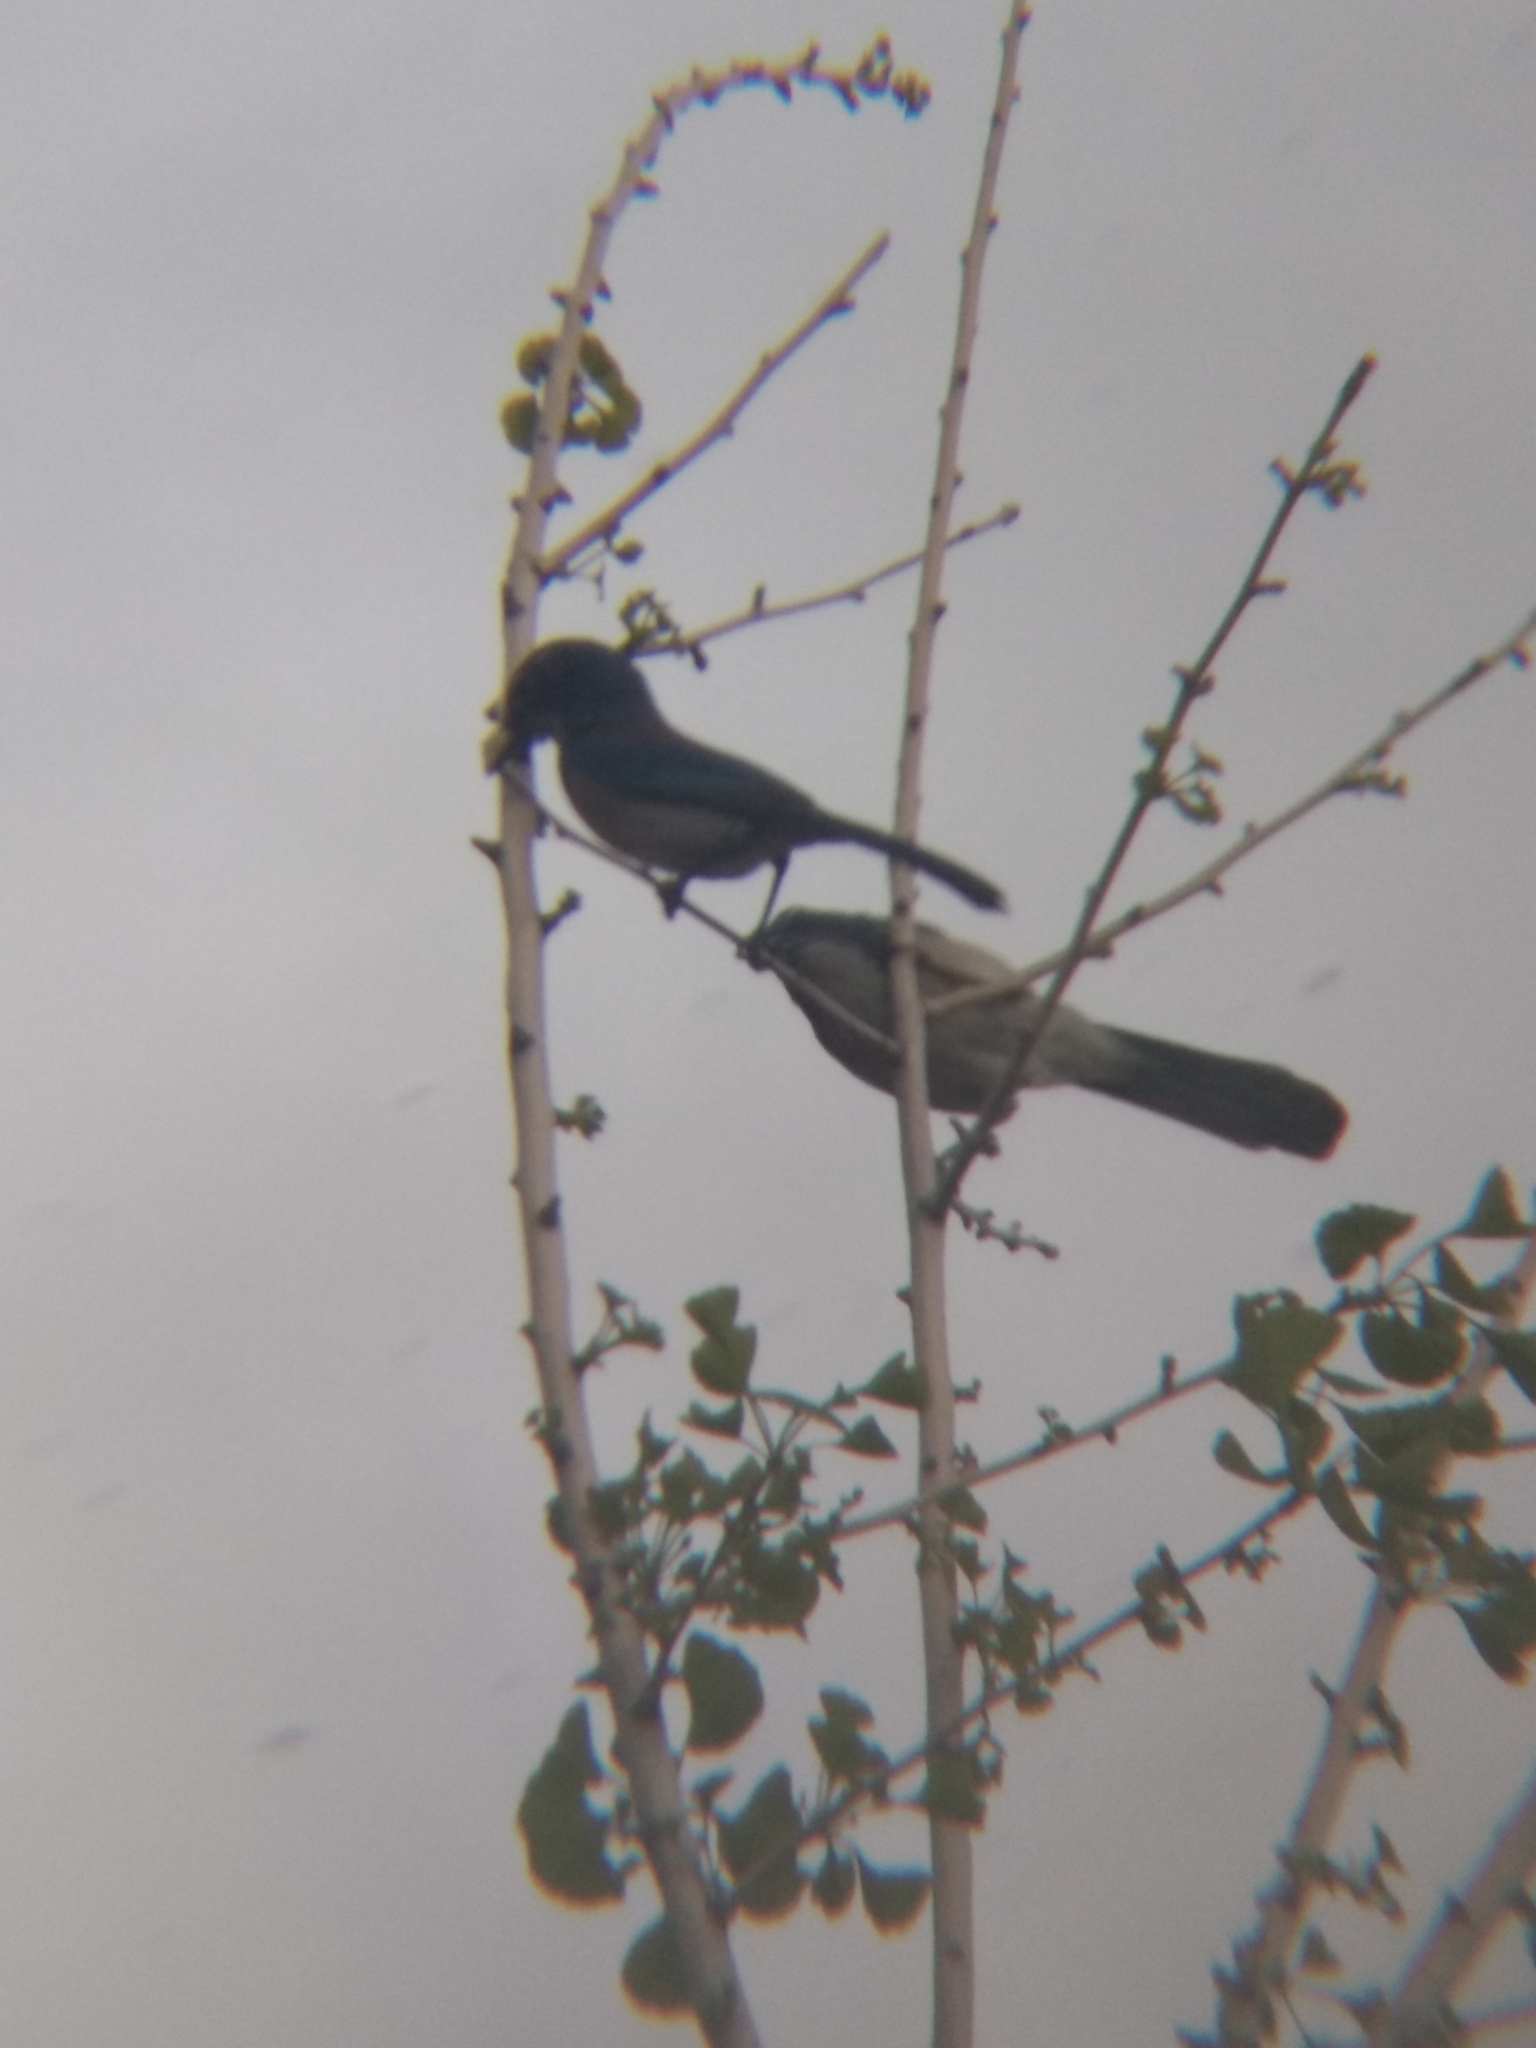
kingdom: Animalia
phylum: Chordata
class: Aves
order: Passeriformes
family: Corvidae
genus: Aphelocoma
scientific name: Aphelocoma californica
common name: California scrub-jay
